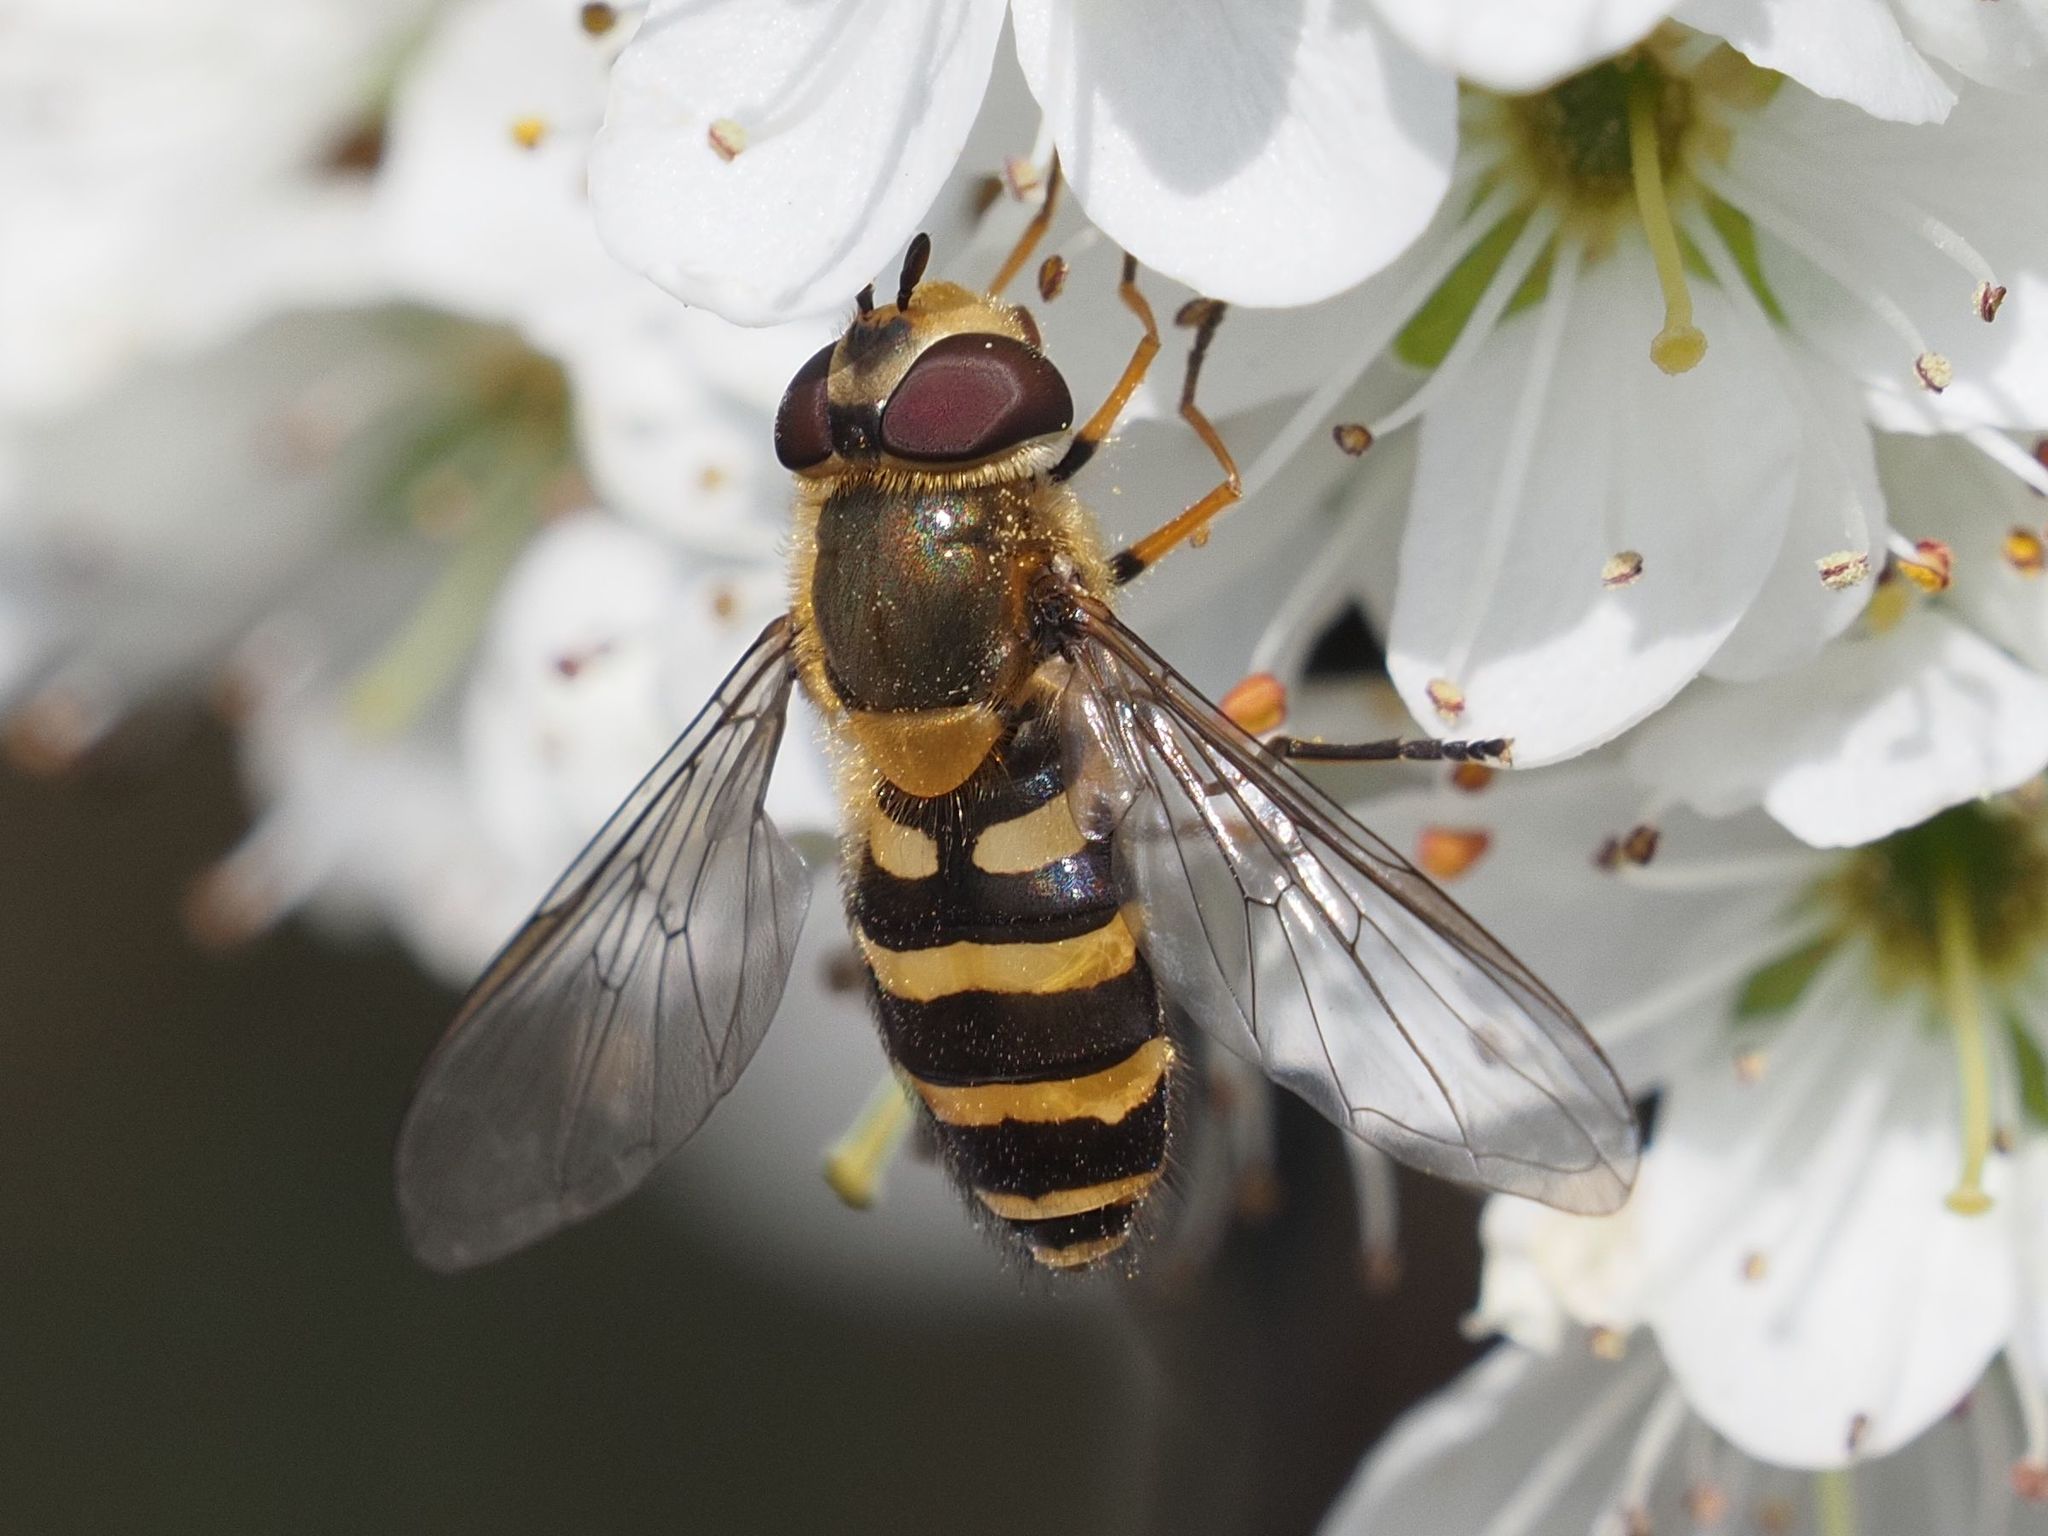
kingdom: Animalia
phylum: Arthropoda
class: Insecta
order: Diptera
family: Syrphidae
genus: Syrphus
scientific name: Syrphus torvus
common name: Hairy-eyed flower fly
